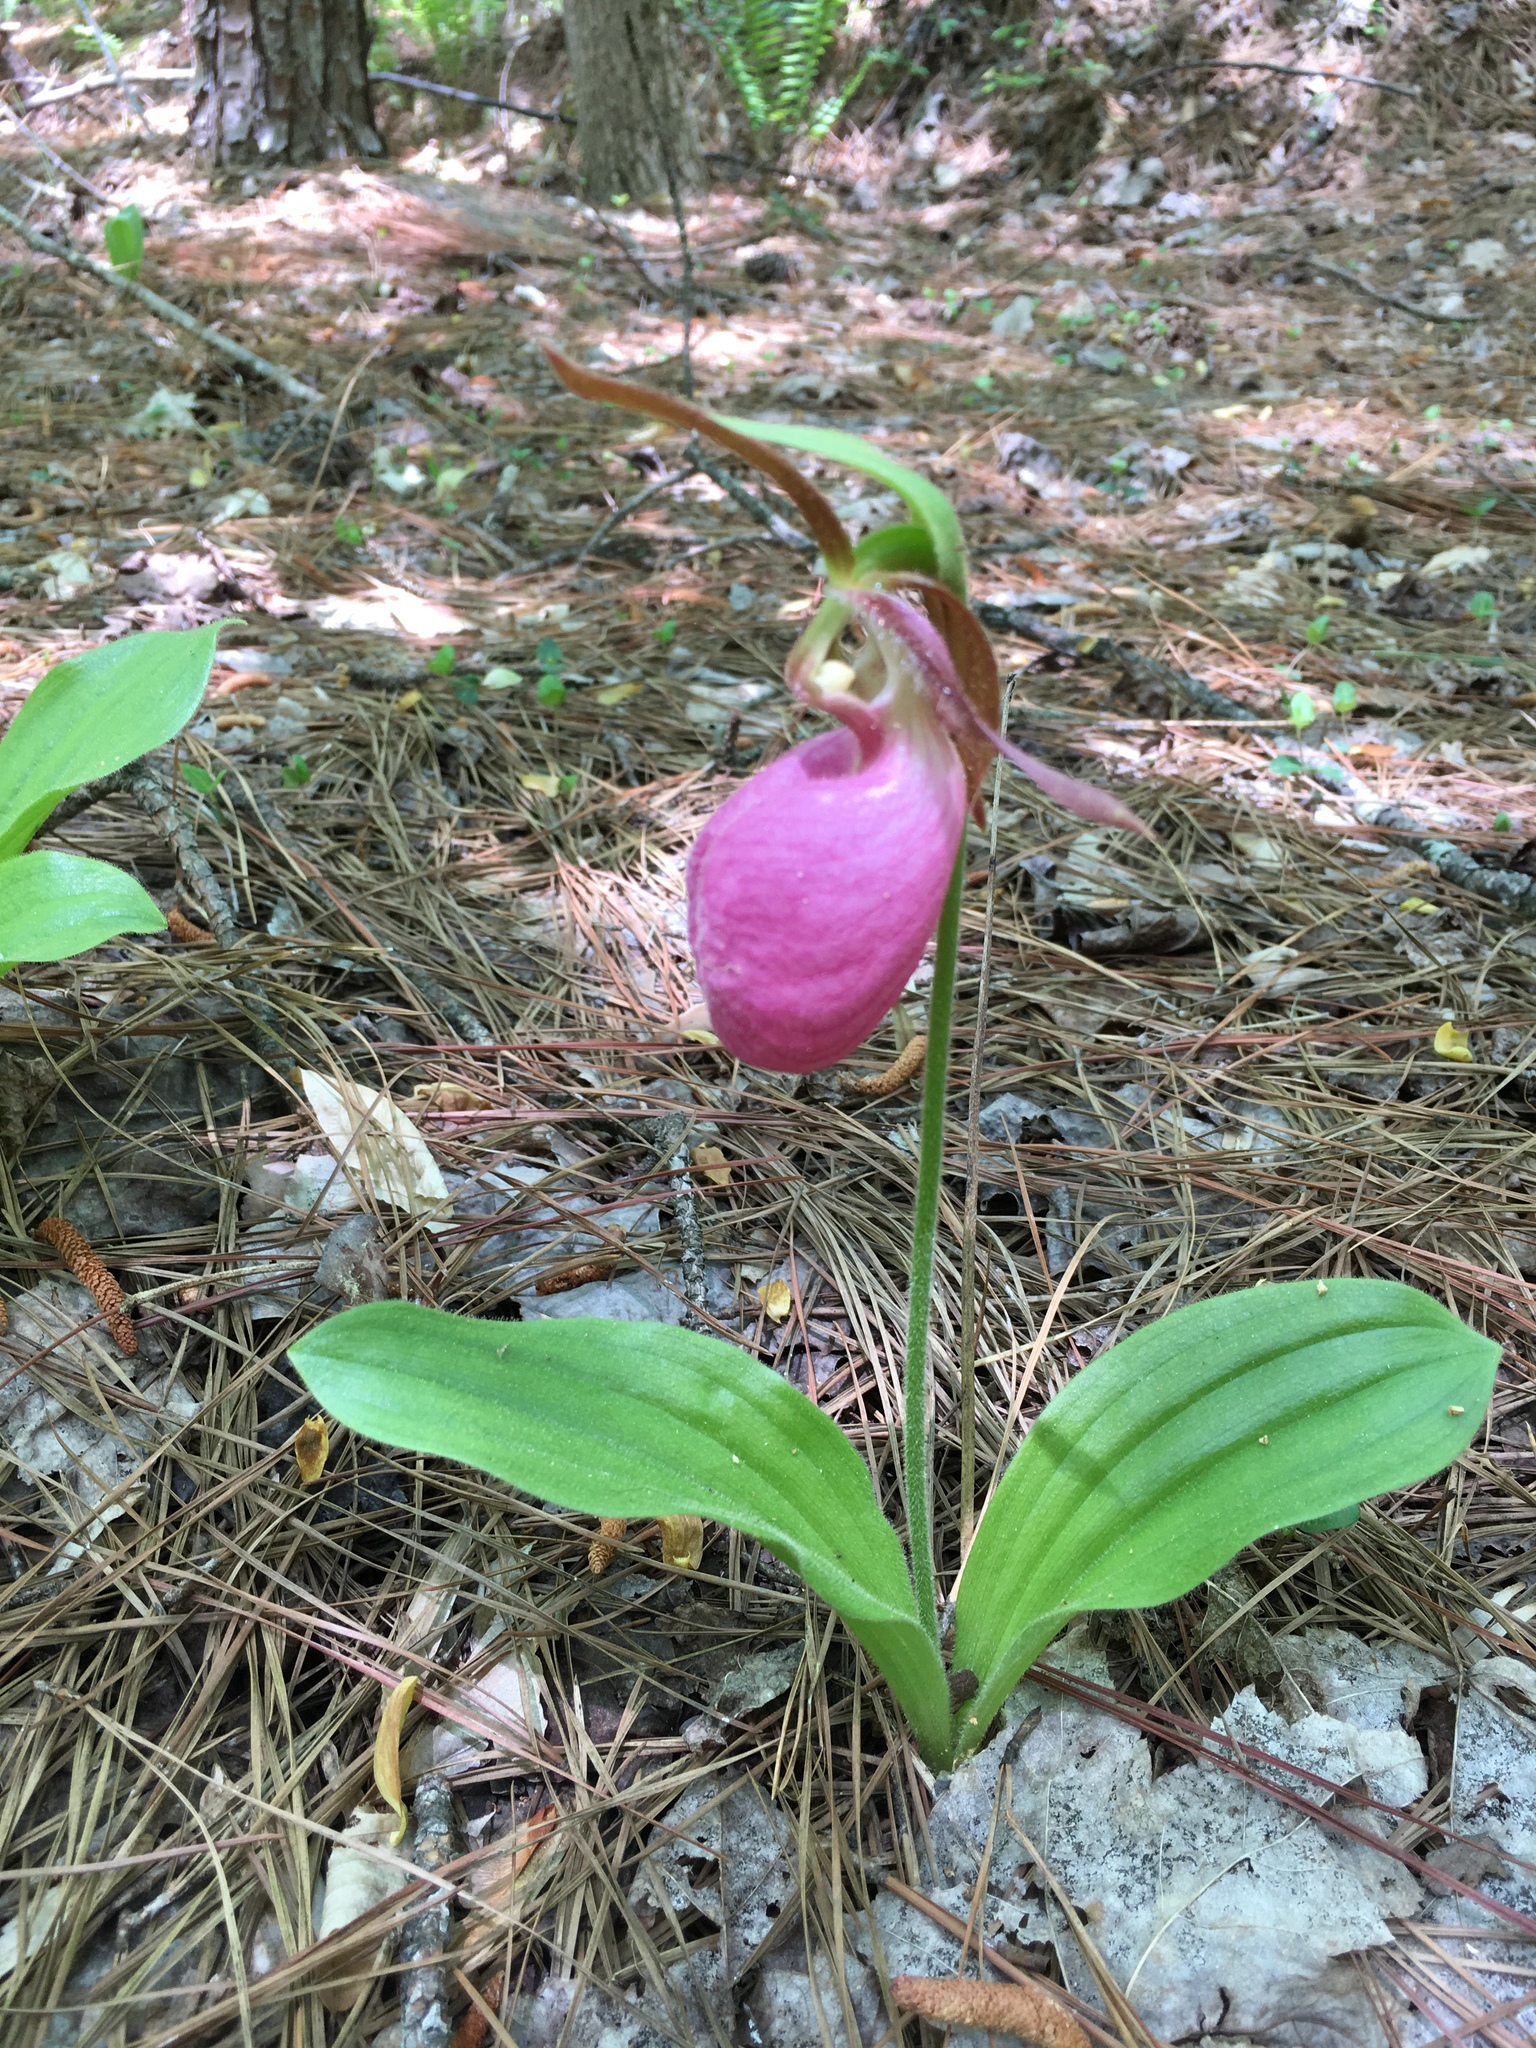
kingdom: Plantae
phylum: Tracheophyta
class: Liliopsida
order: Asparagales
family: Orchidaceae
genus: Cypripedium
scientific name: Cypripedium acaule
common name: Pink lady's-slipper
